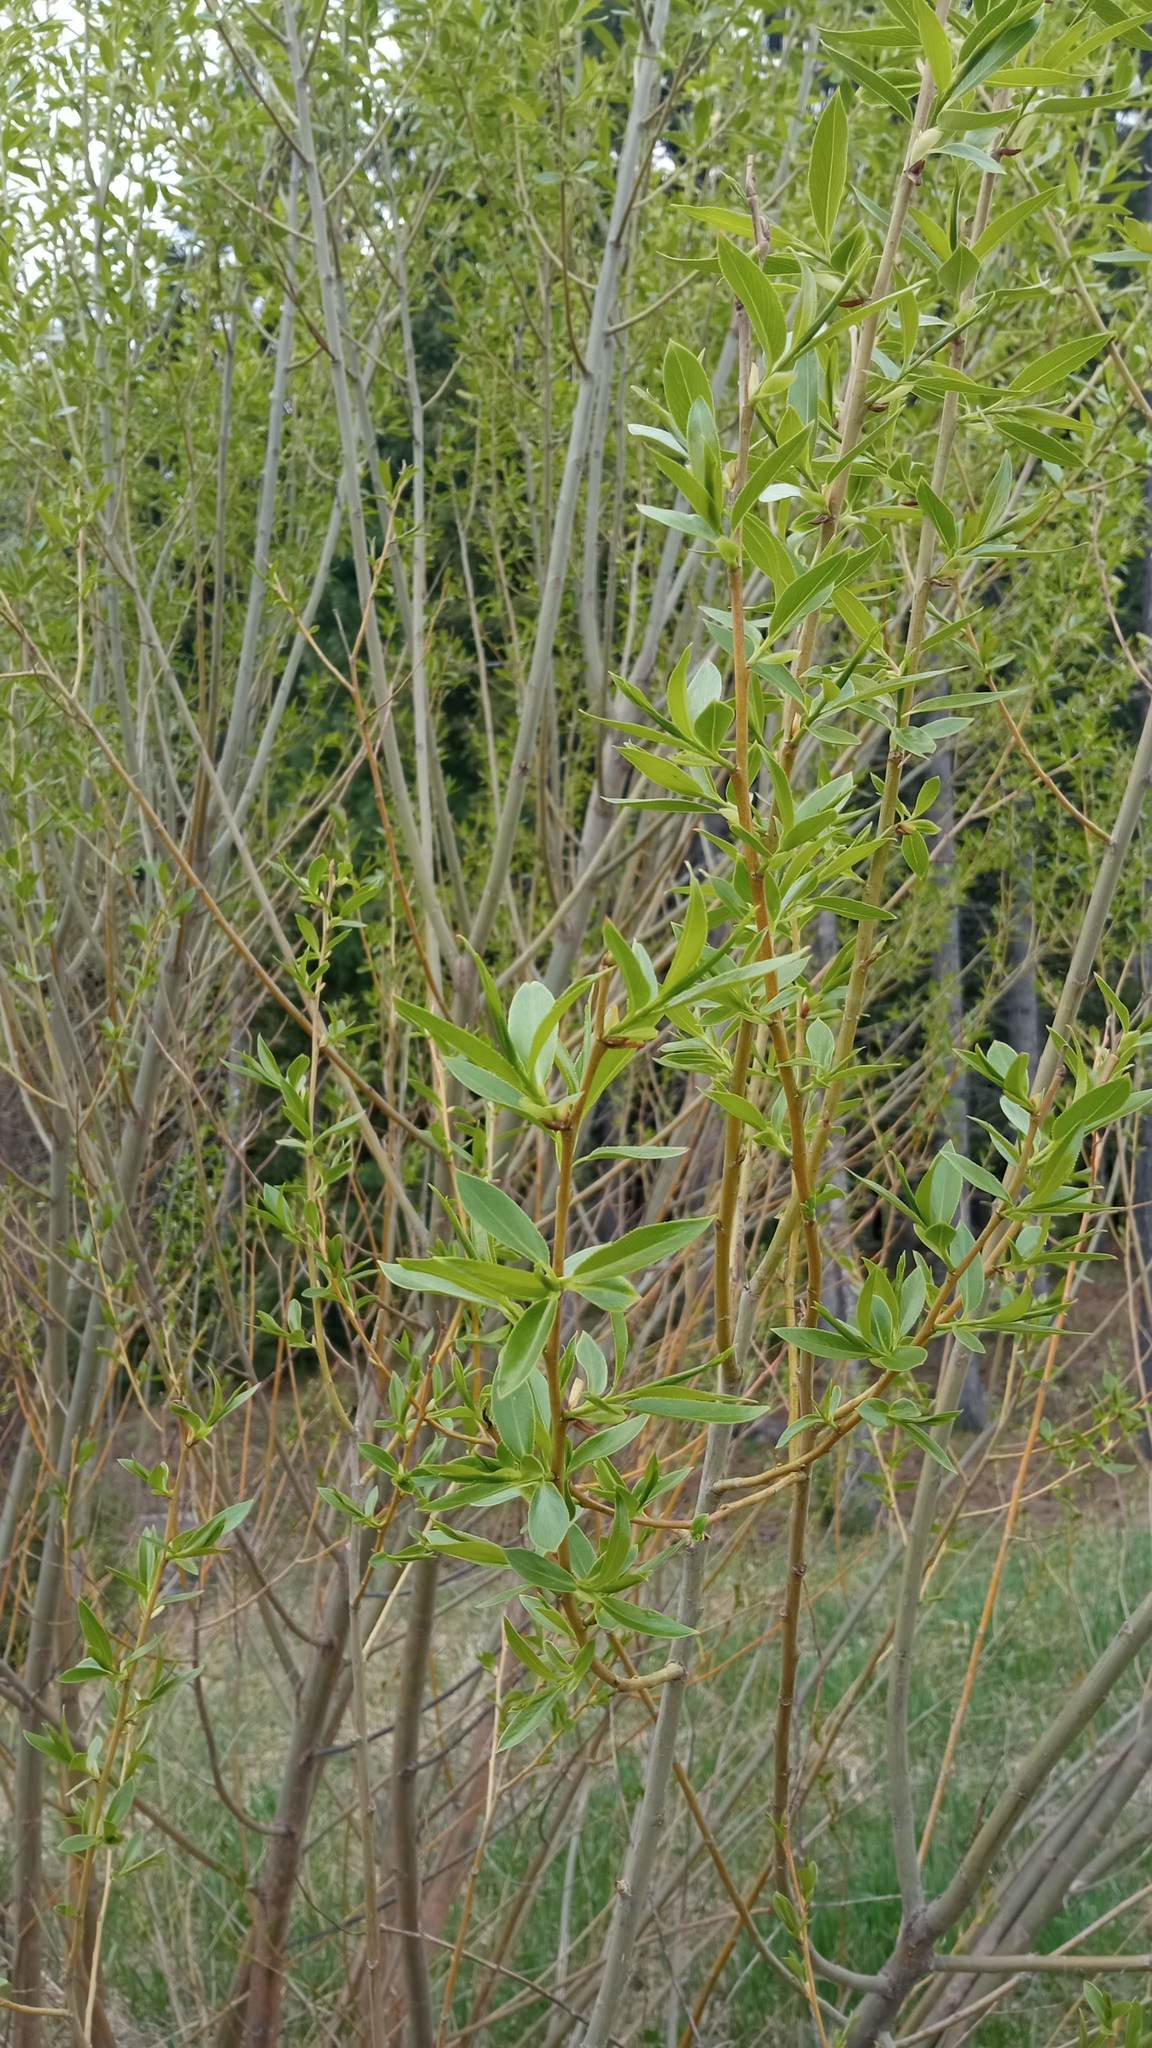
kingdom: Plantae
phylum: Tracheophyta
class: Magnoliopsida
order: Malpighiales
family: Salicaceae
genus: Salix
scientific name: Salix viminalis
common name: Osier
